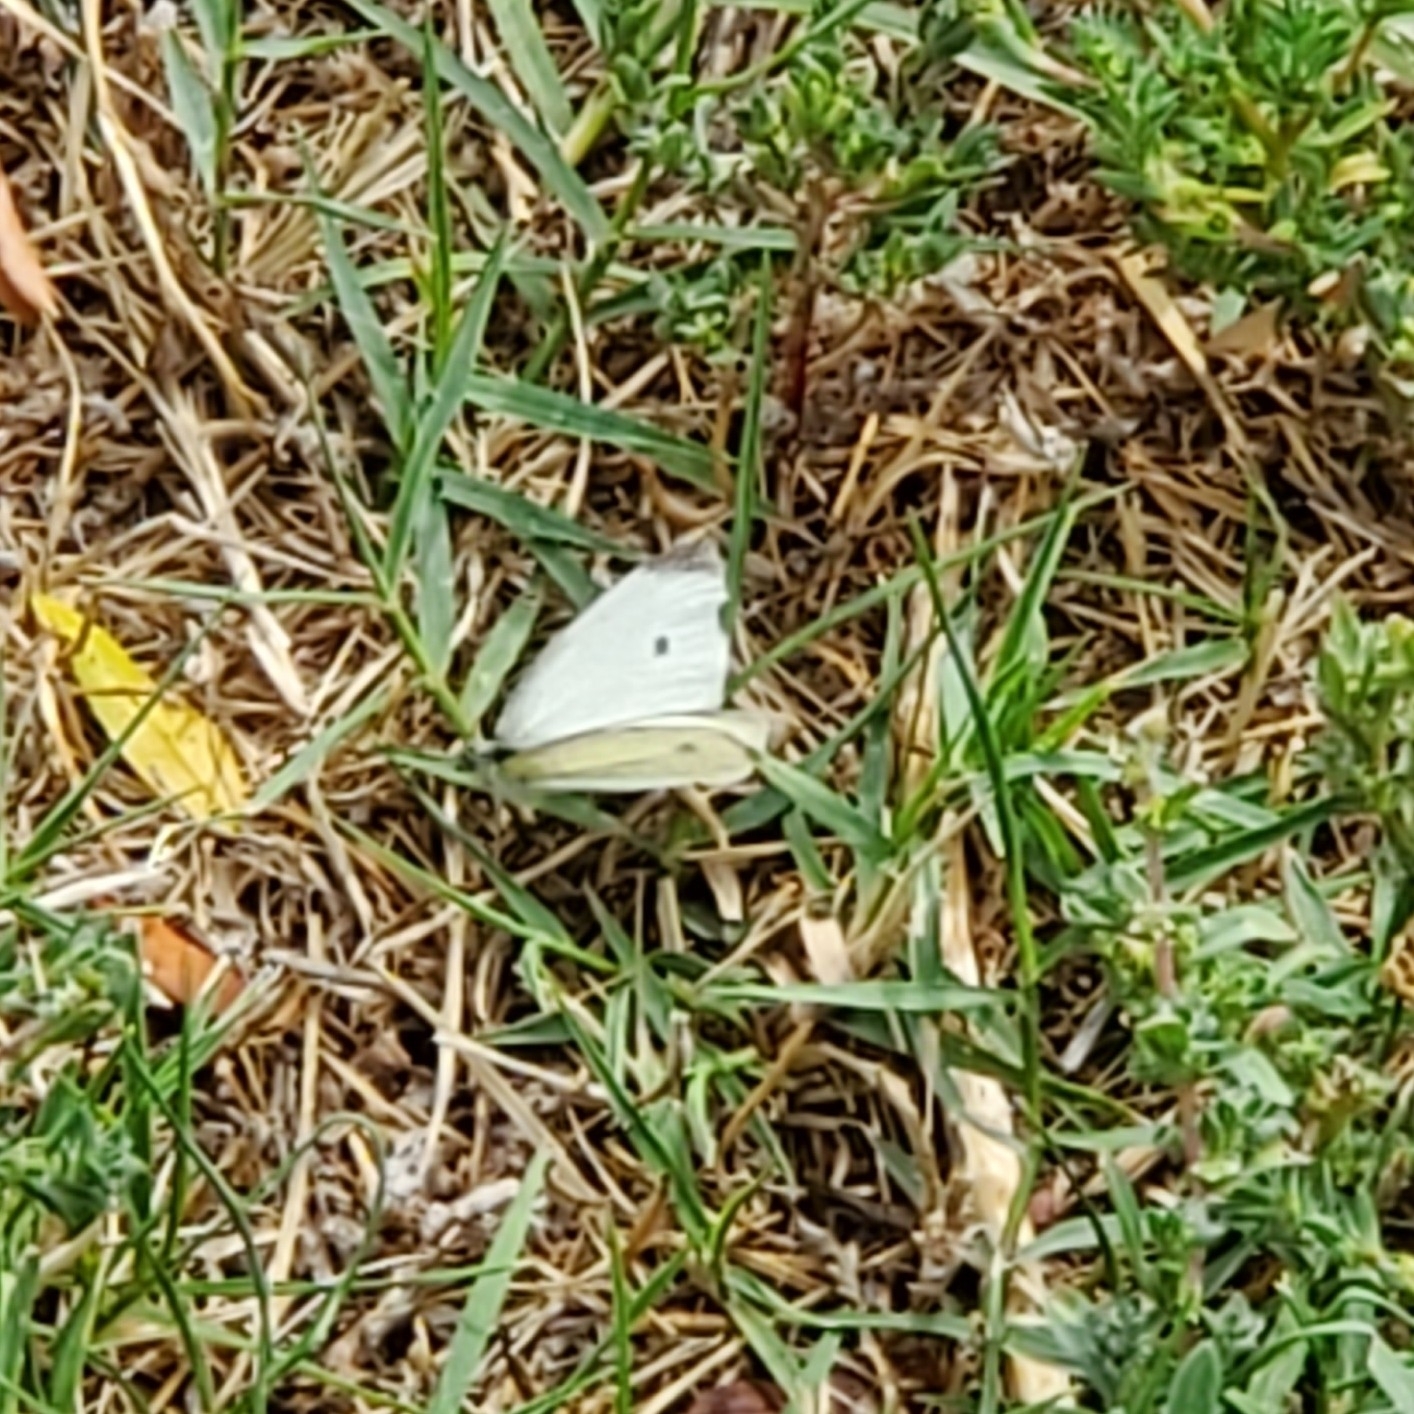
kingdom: Animalia
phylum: Arthropoda
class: Insecta
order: Lepidoptera
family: Pieridae
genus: Pieris
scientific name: Pieris rapae
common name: Small white
